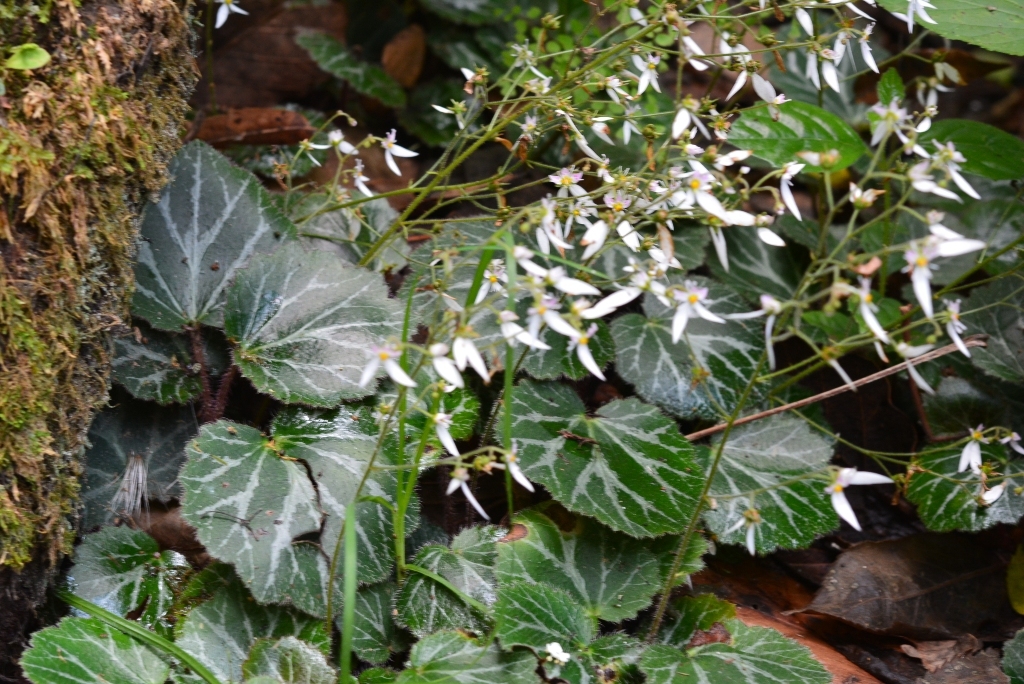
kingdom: Plantae
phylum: Tracheophyta
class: Magnoliopsida
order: Saxifragales
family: Saxifragaceae
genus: Saxifraga
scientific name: Saxifraga stolonifera
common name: Creeping saxifrage
